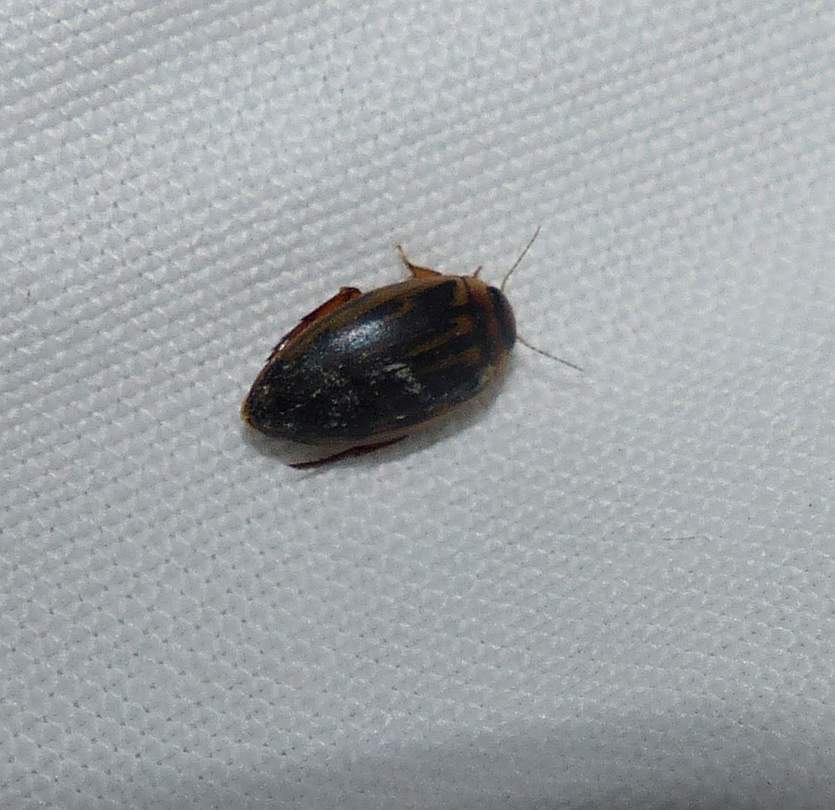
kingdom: Animalia
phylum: Arthropoda
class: Insecta
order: Coleoptera
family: Dytiscidae
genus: Coptotomus
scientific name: Coptotomus longulus
